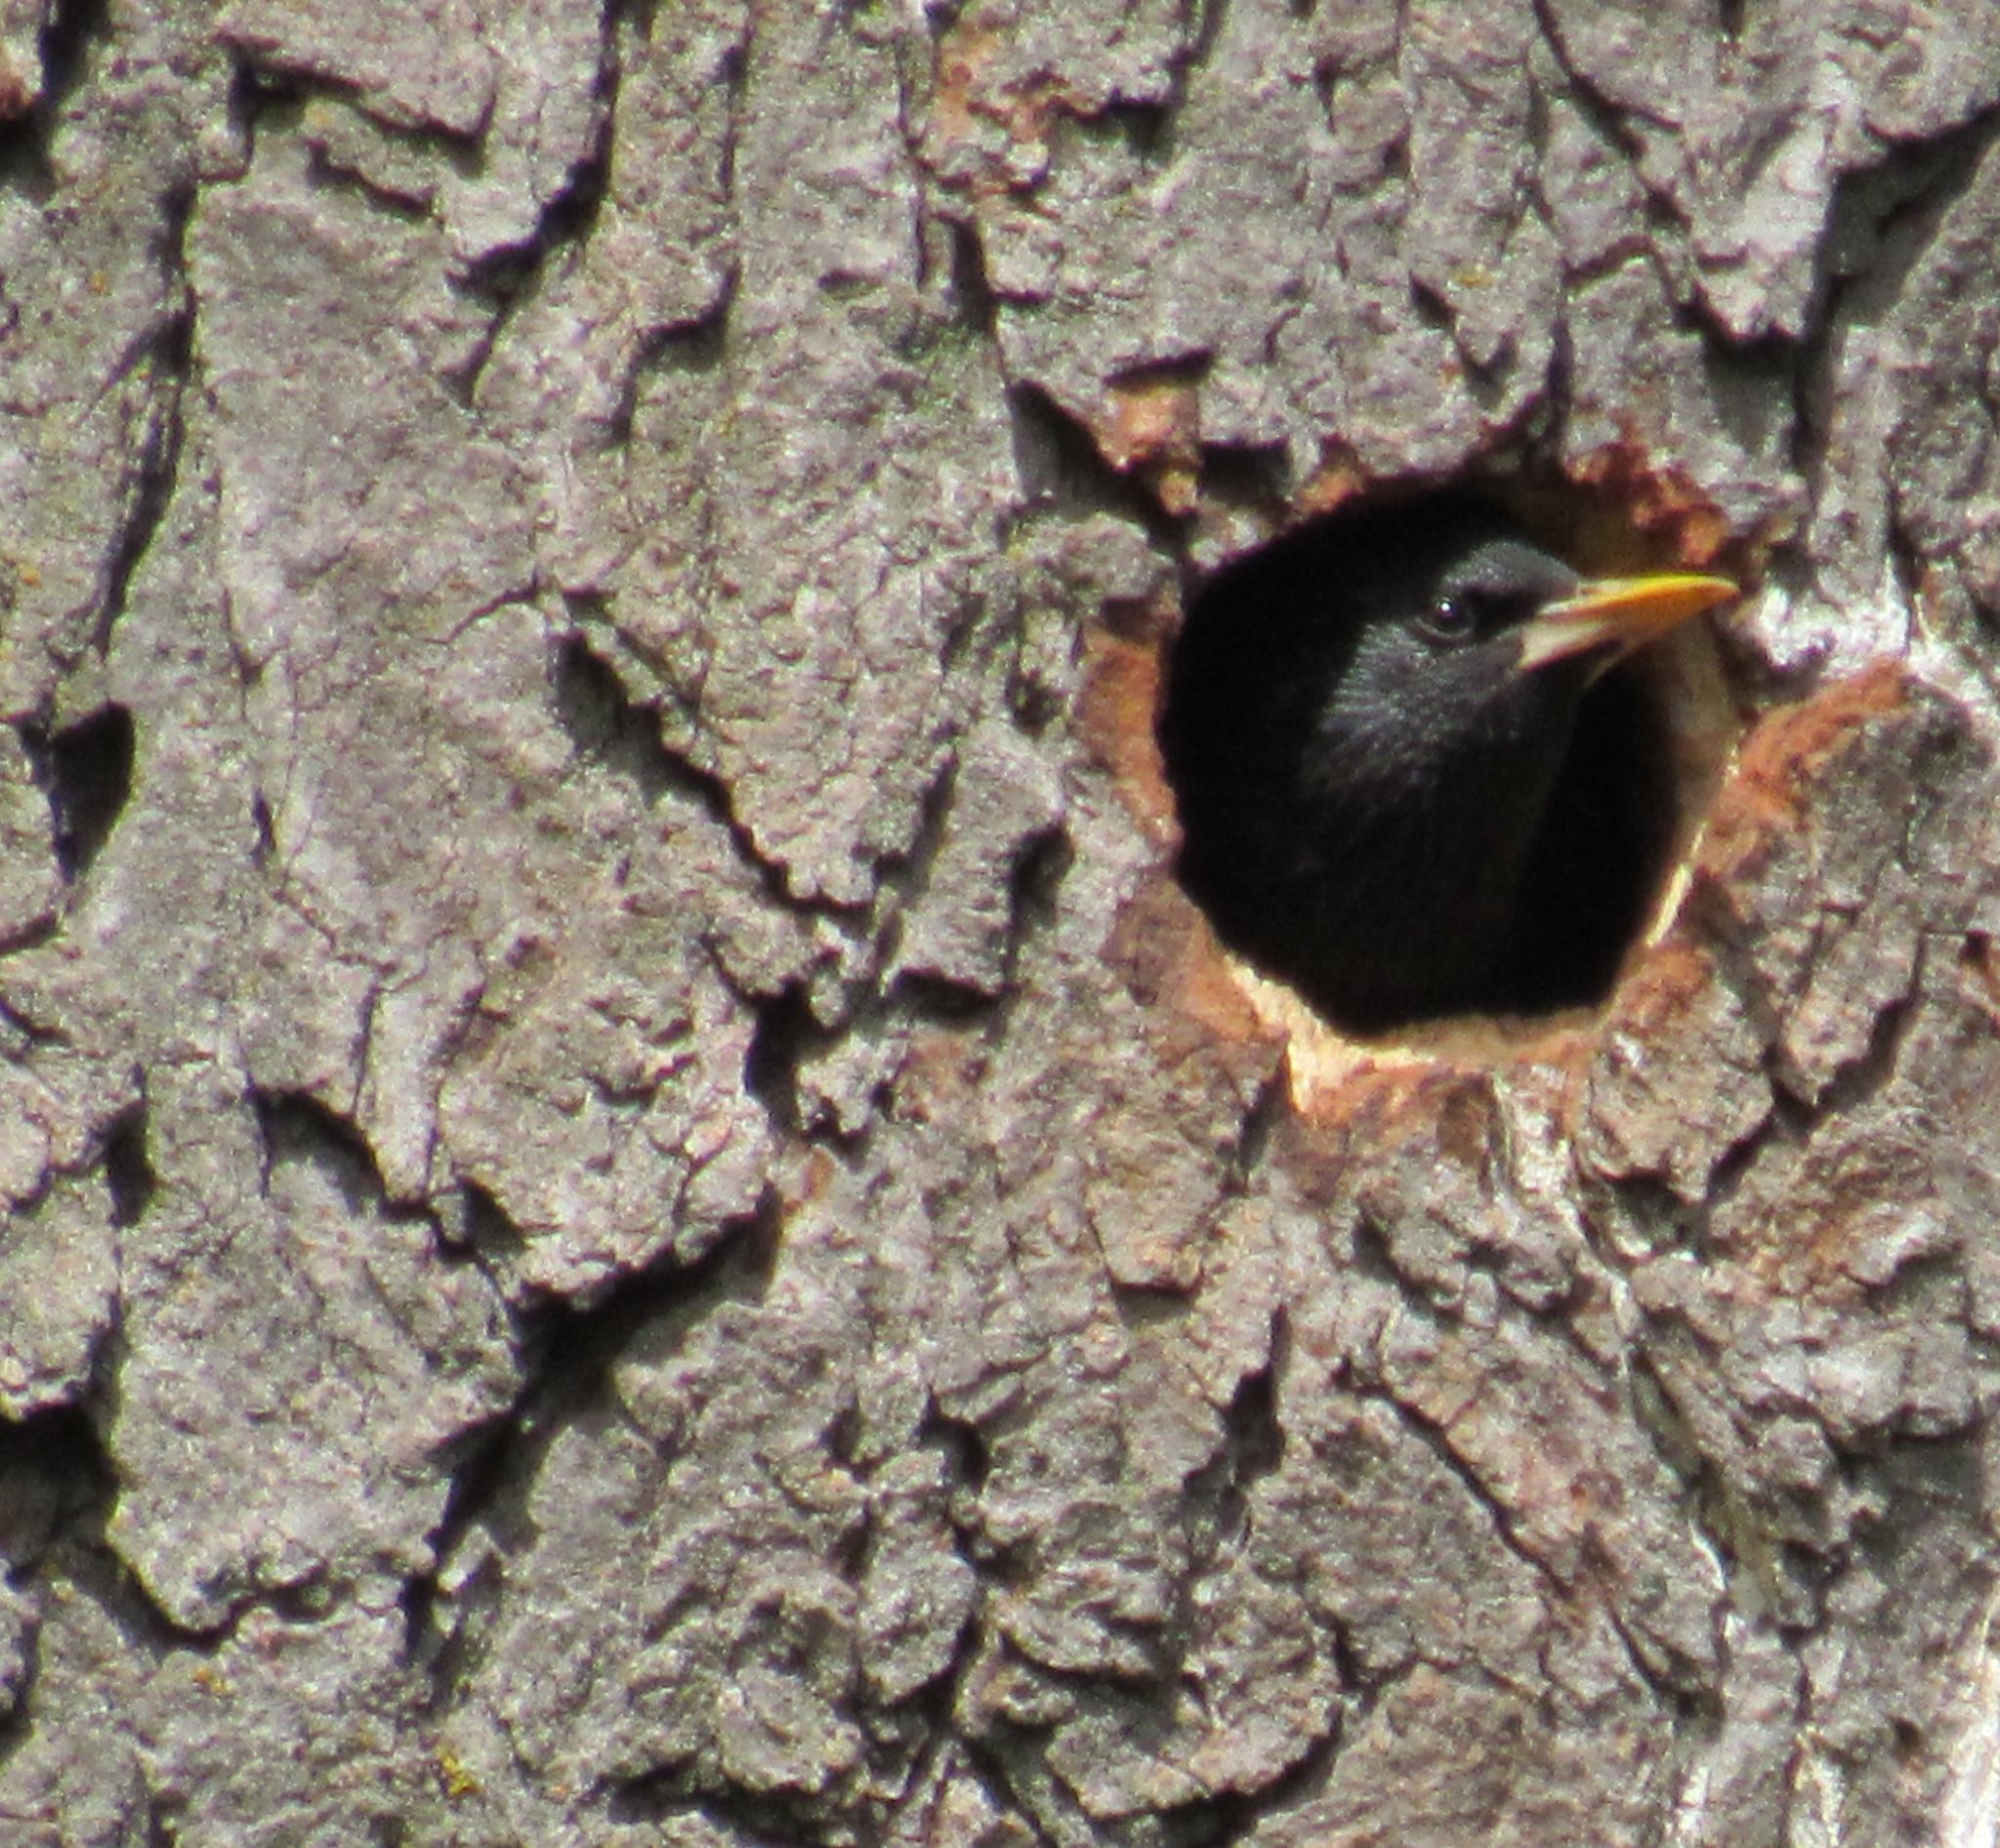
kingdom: Animalia
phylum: Chordata
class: Aves
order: Passeriformes
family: Sturnidae
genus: Sturnus
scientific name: Sturnus vulgaris
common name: Common starling
